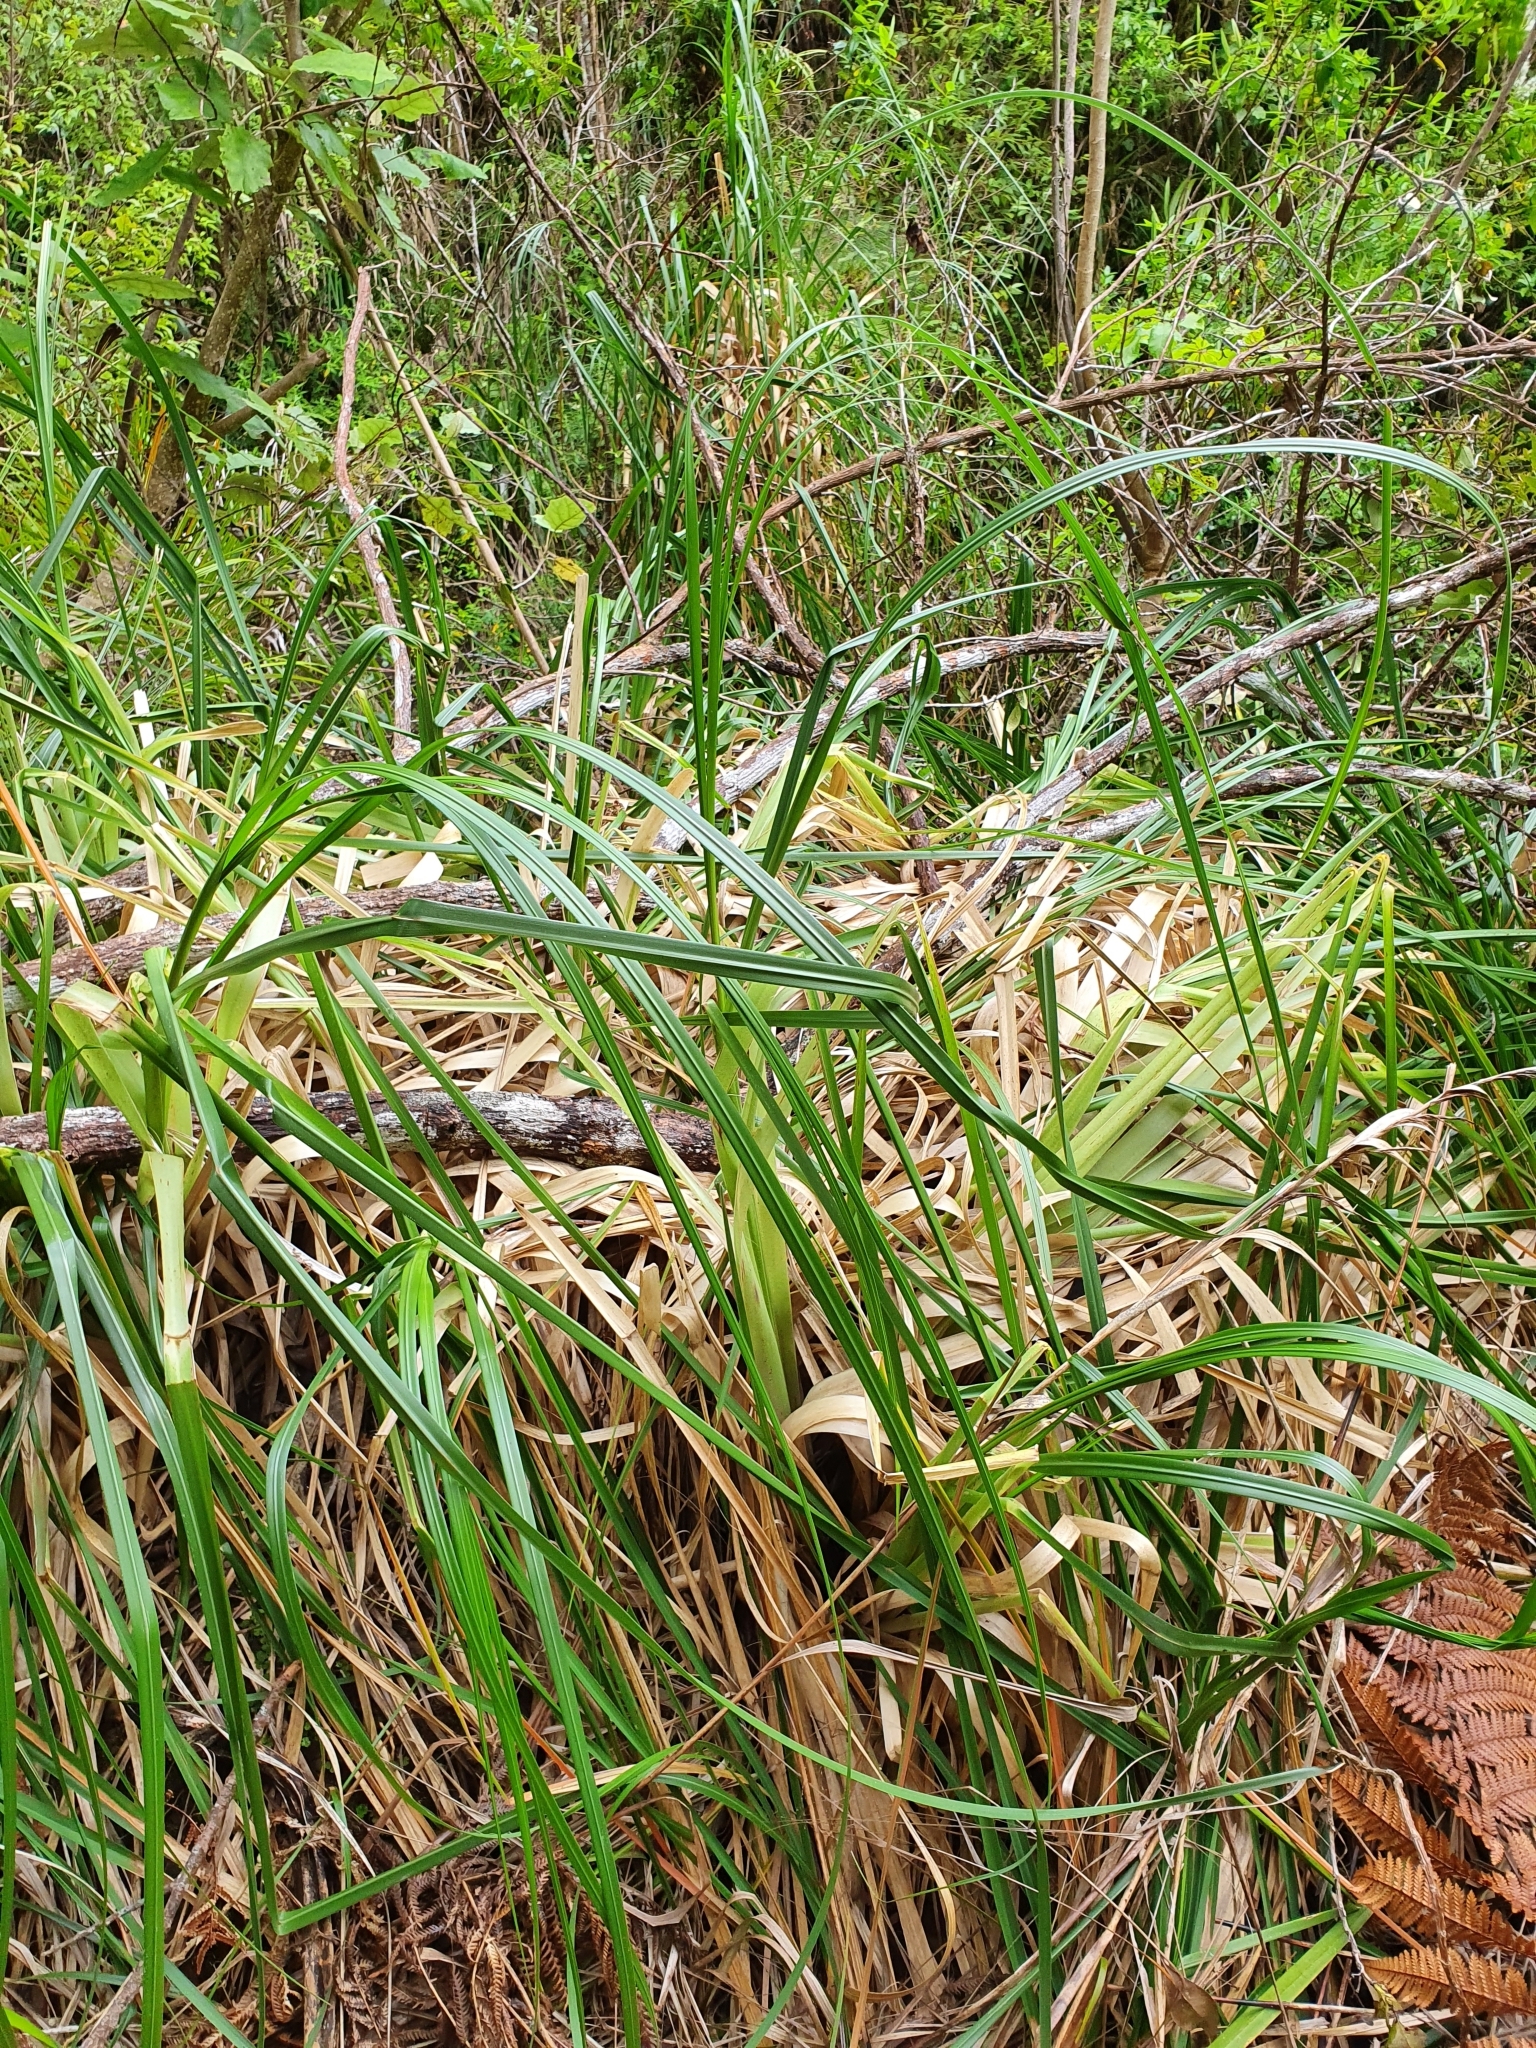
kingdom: Plantae
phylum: Tracheophyta
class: Liliopsida
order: Poales
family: Poaceae
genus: Cortaderia
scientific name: Cortaderia selloana
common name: Uruguayan pampas grass
